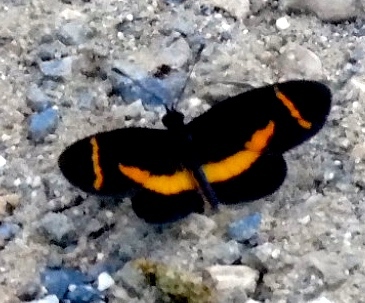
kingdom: Animalia
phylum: Arthropoda
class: Insecta
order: Lepidoptera
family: Nymphalidae
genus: Microtia
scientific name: Microtia elva
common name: Elf
